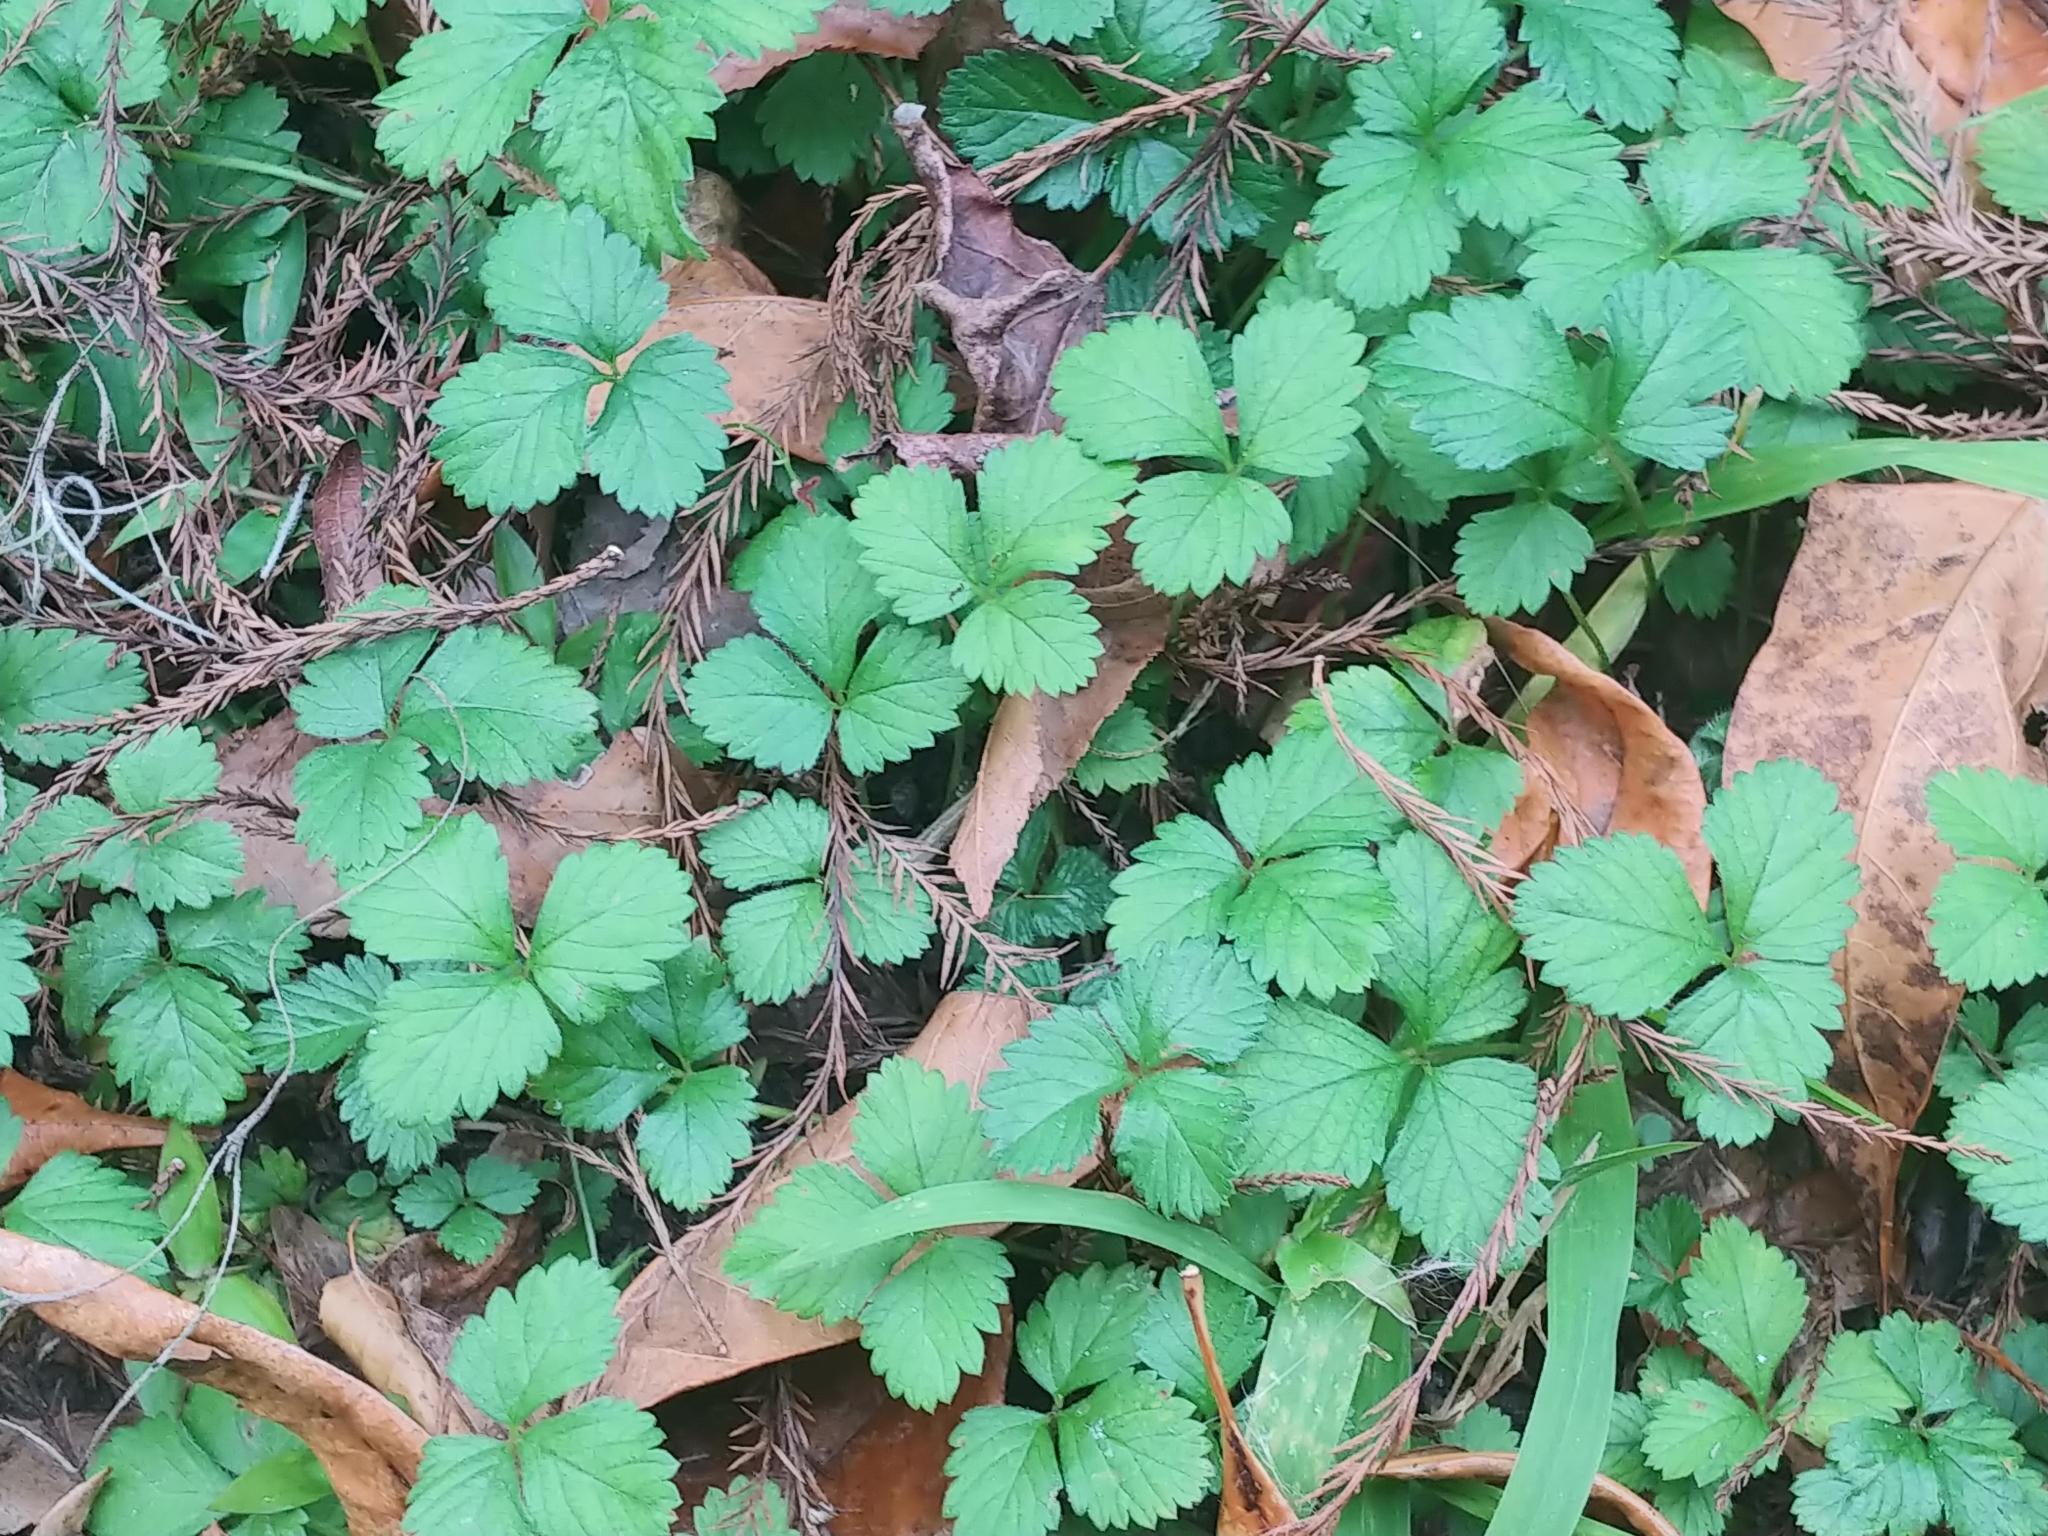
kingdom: Plantae
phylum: Tracheophyta
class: Magnoliopsida
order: Rosales
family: Rosaceae
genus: Potentilla
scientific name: Potentilla indica
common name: Yellow-flowered strawberry
